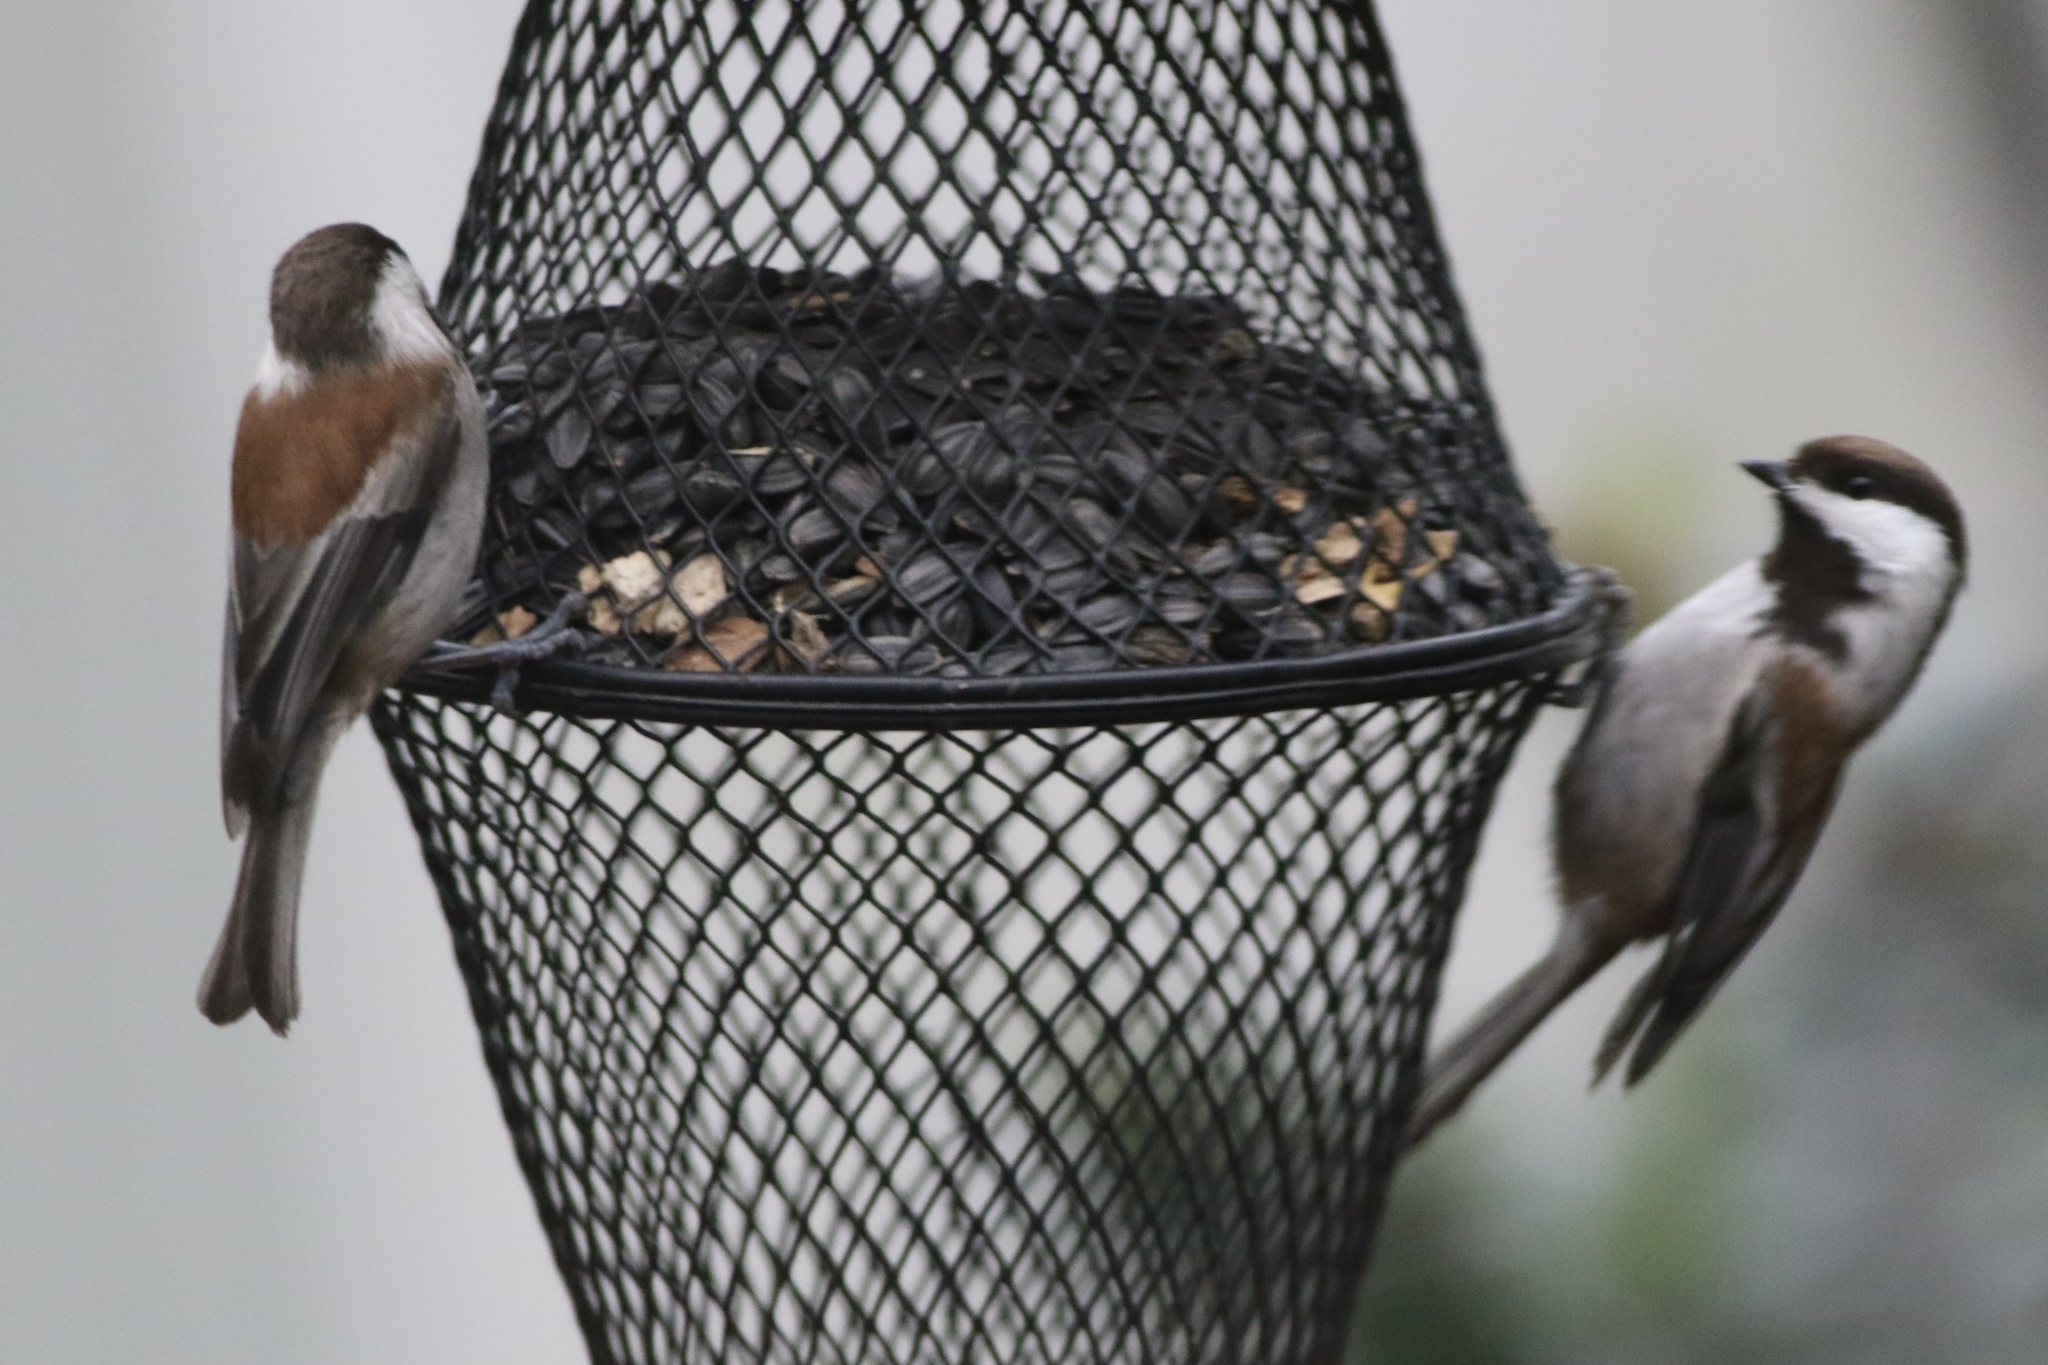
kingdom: Animalia
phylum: Chordata
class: Aves
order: Passeriformes
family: Paridae
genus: Poecile
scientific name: Poecile rufescens
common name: Chestnut-backed chickadee
